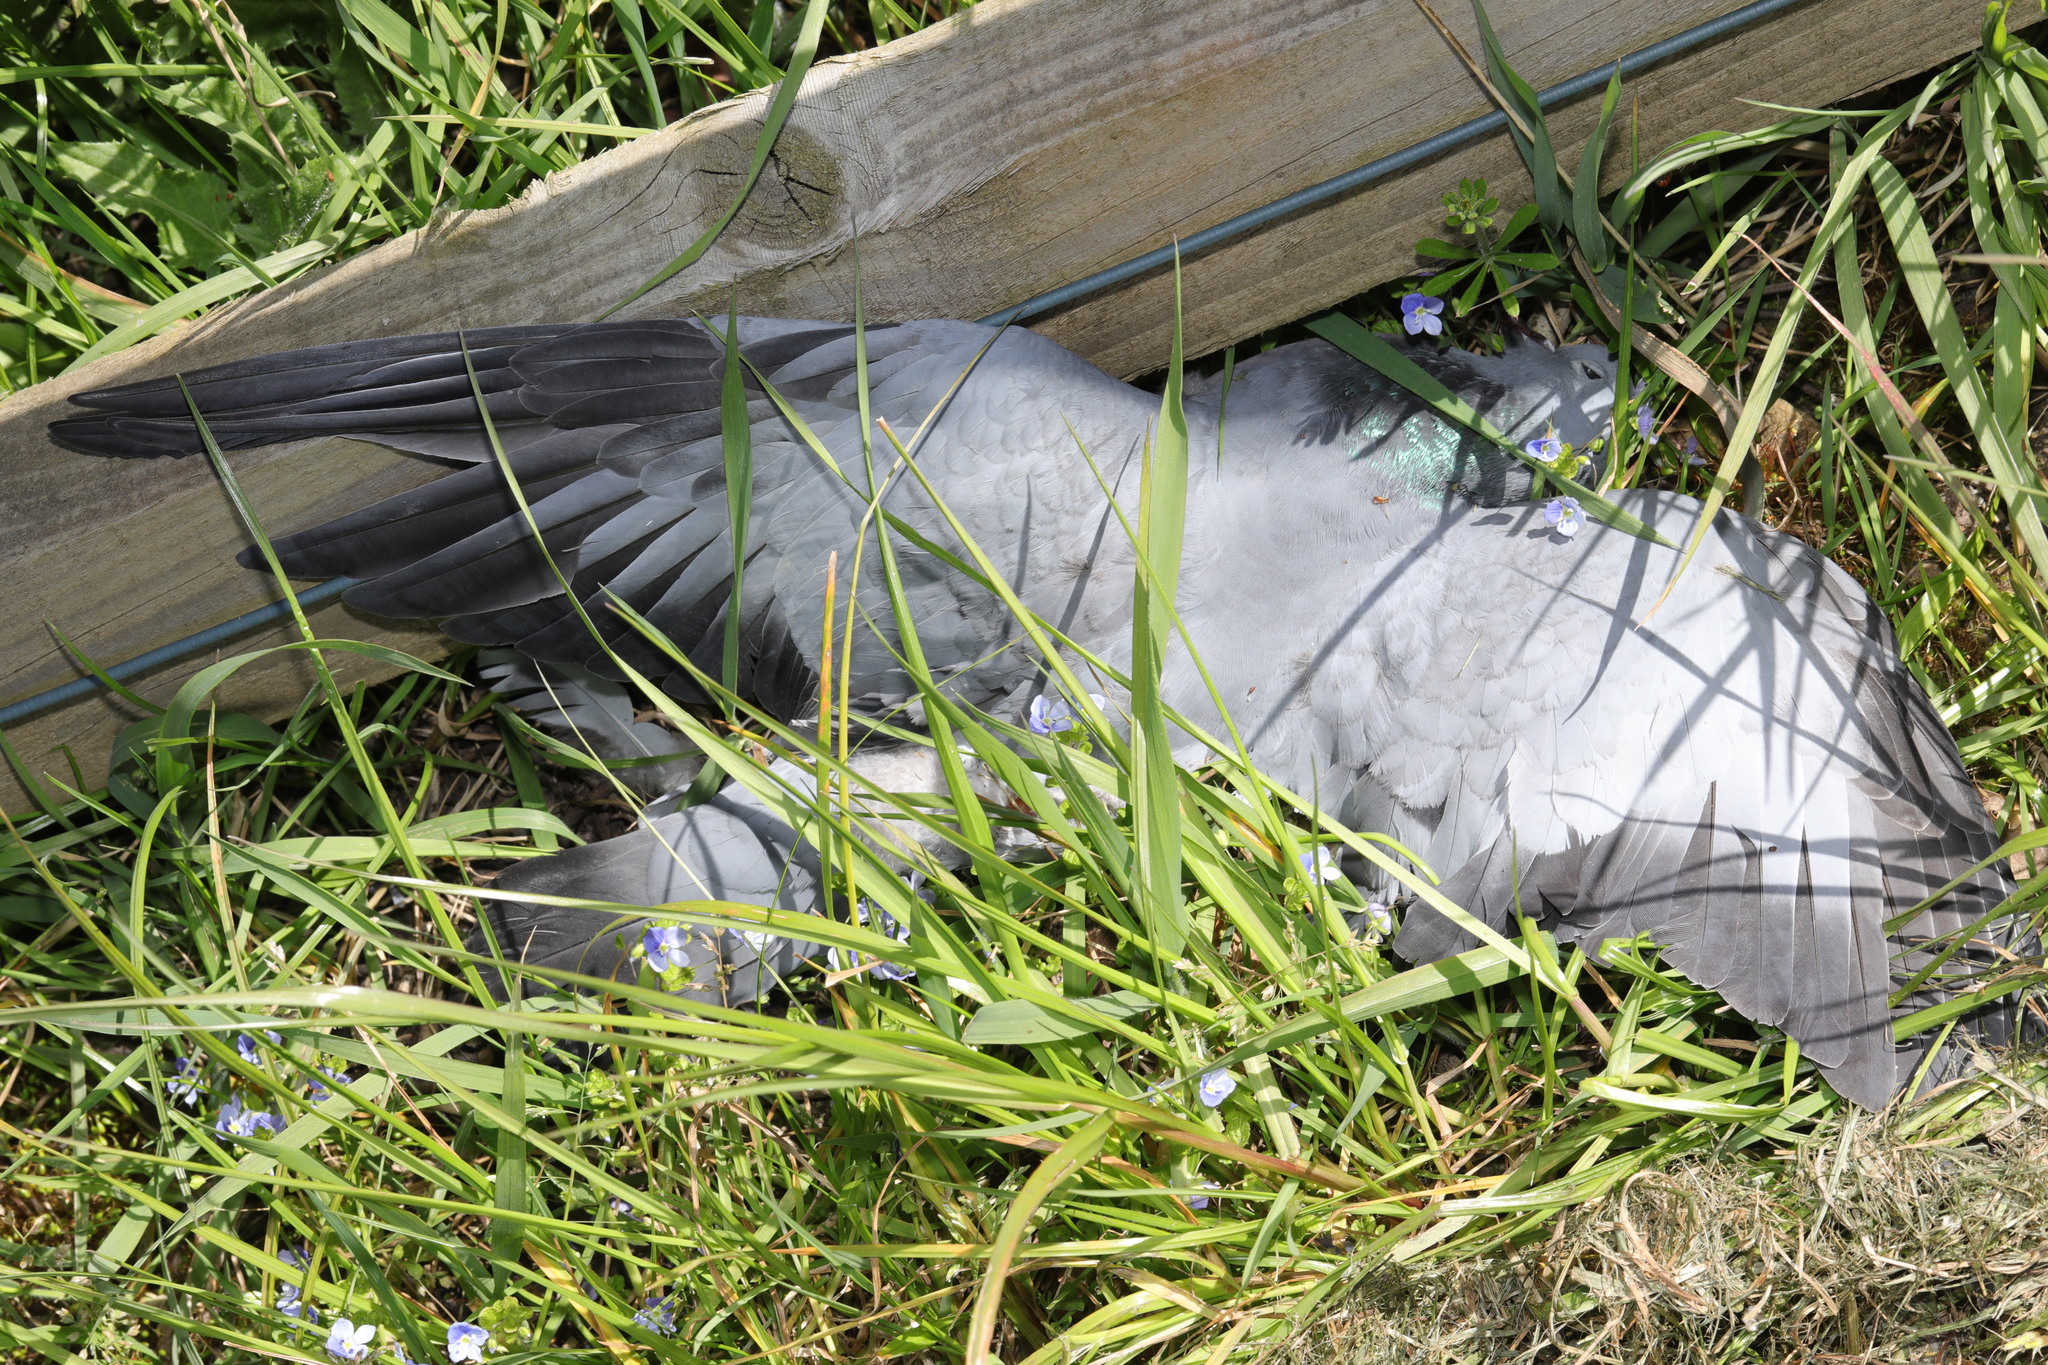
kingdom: Animalia
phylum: Chordata
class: Aves
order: Columbiformes
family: Columbidae
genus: Columba
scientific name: Columba oenas
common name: Stock dove
